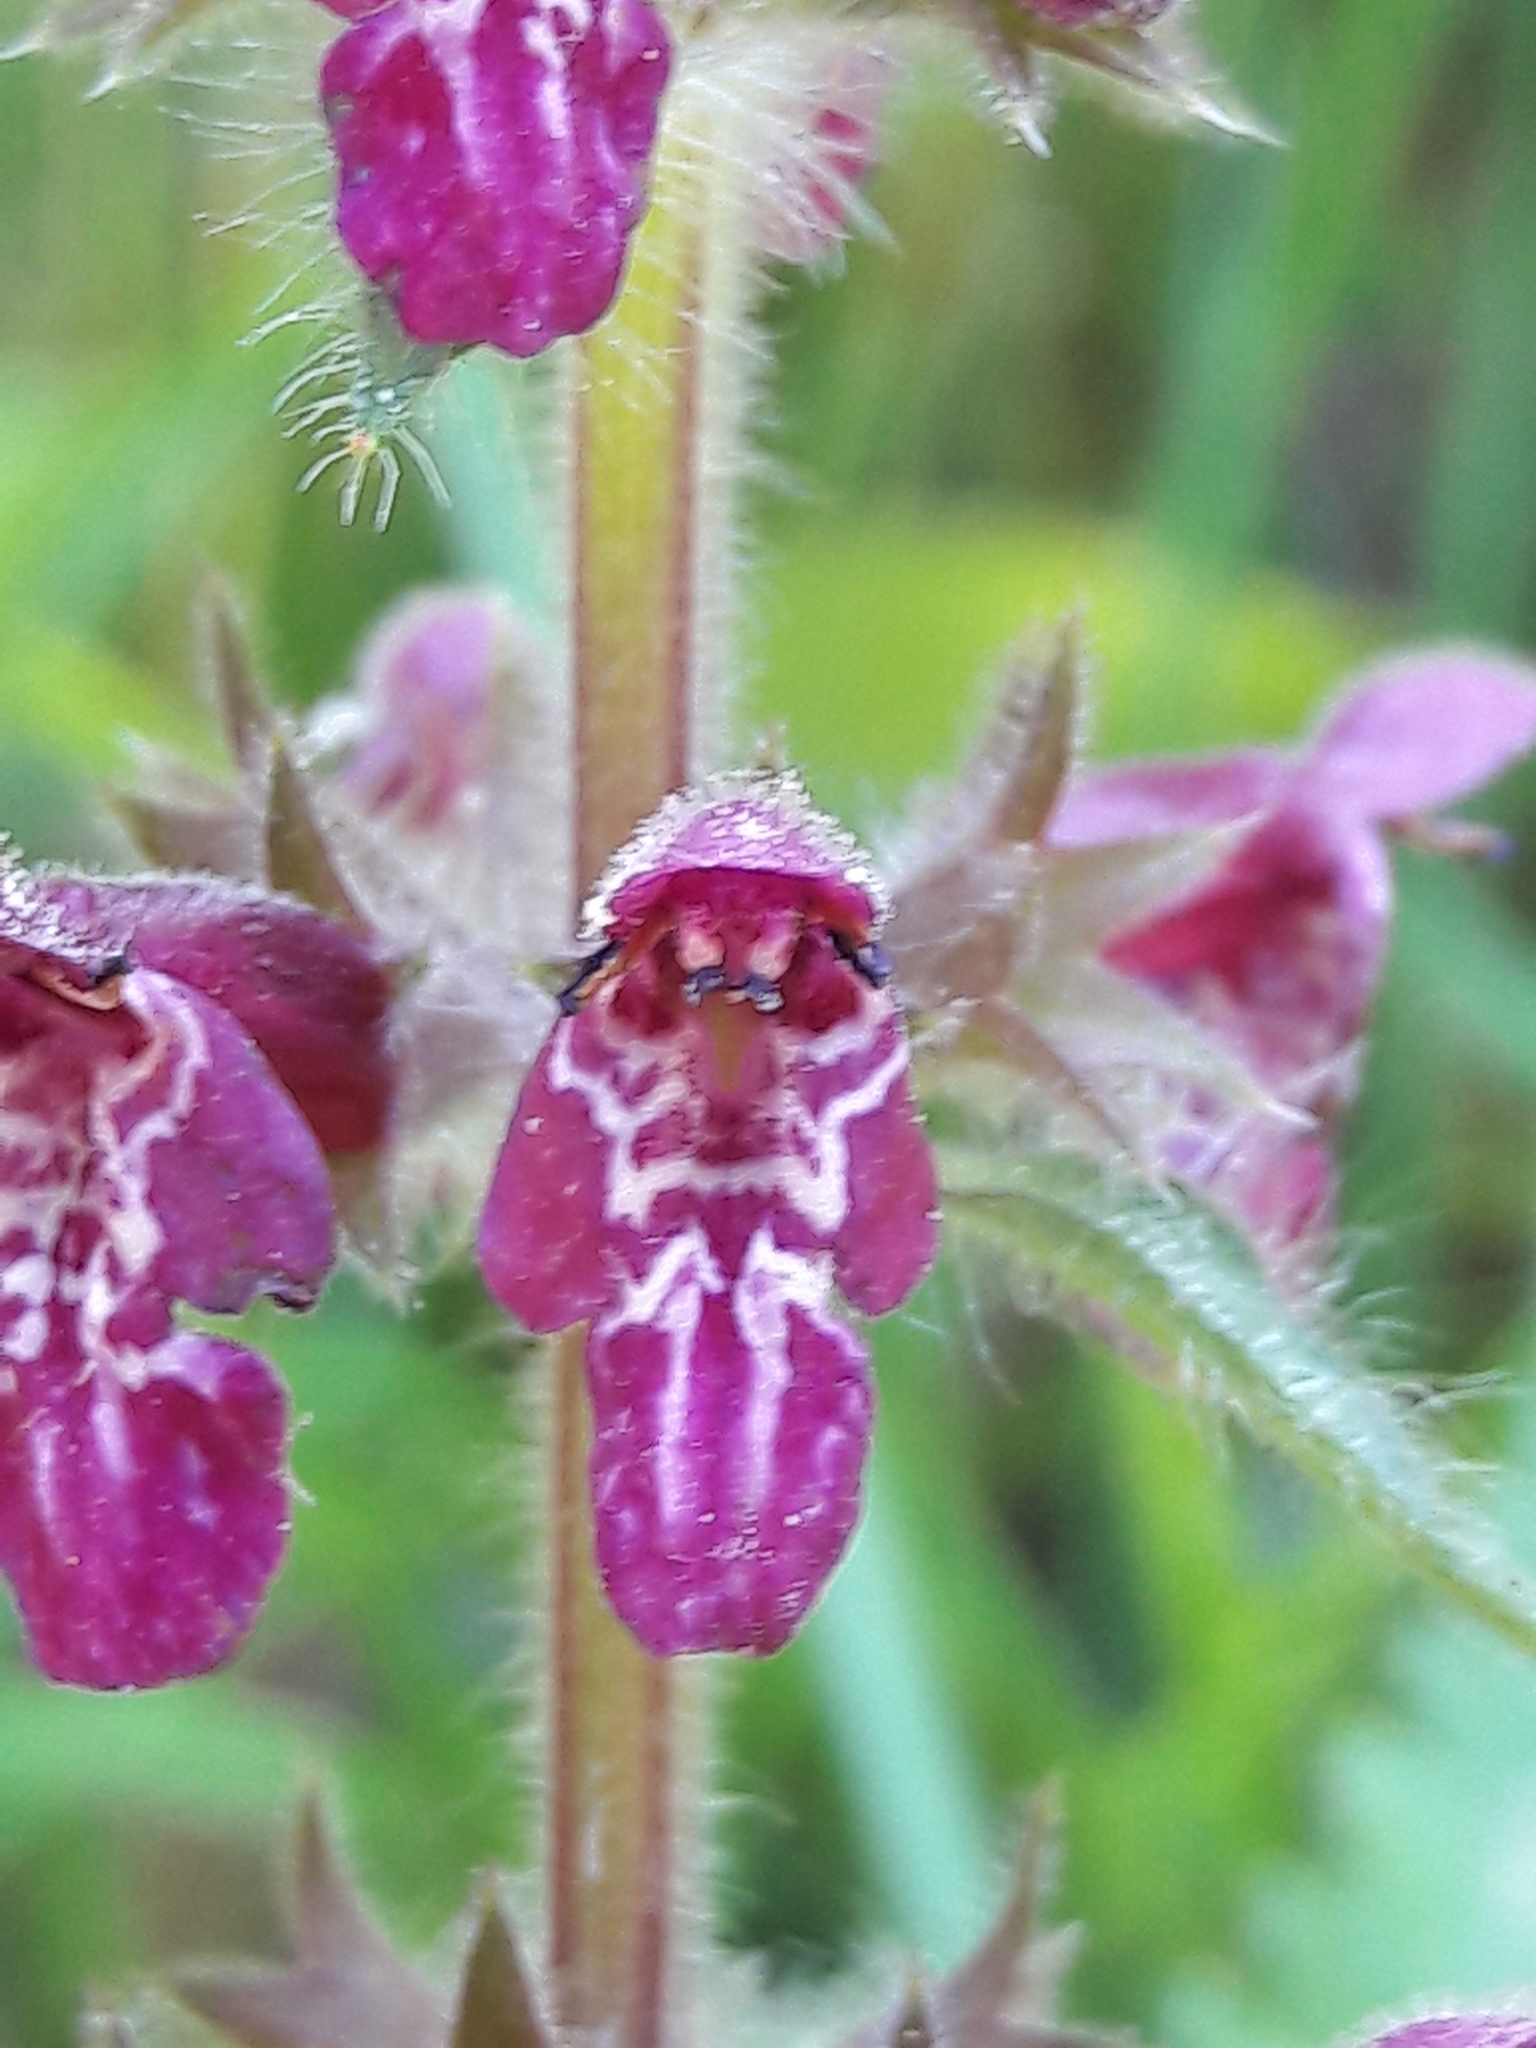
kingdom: Plantae
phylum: Tracheophyta
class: Magnoliopsida
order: Lamiales
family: Lamiaceae
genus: Stachys
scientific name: Stachys sylvatica
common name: Hedge woundwort
